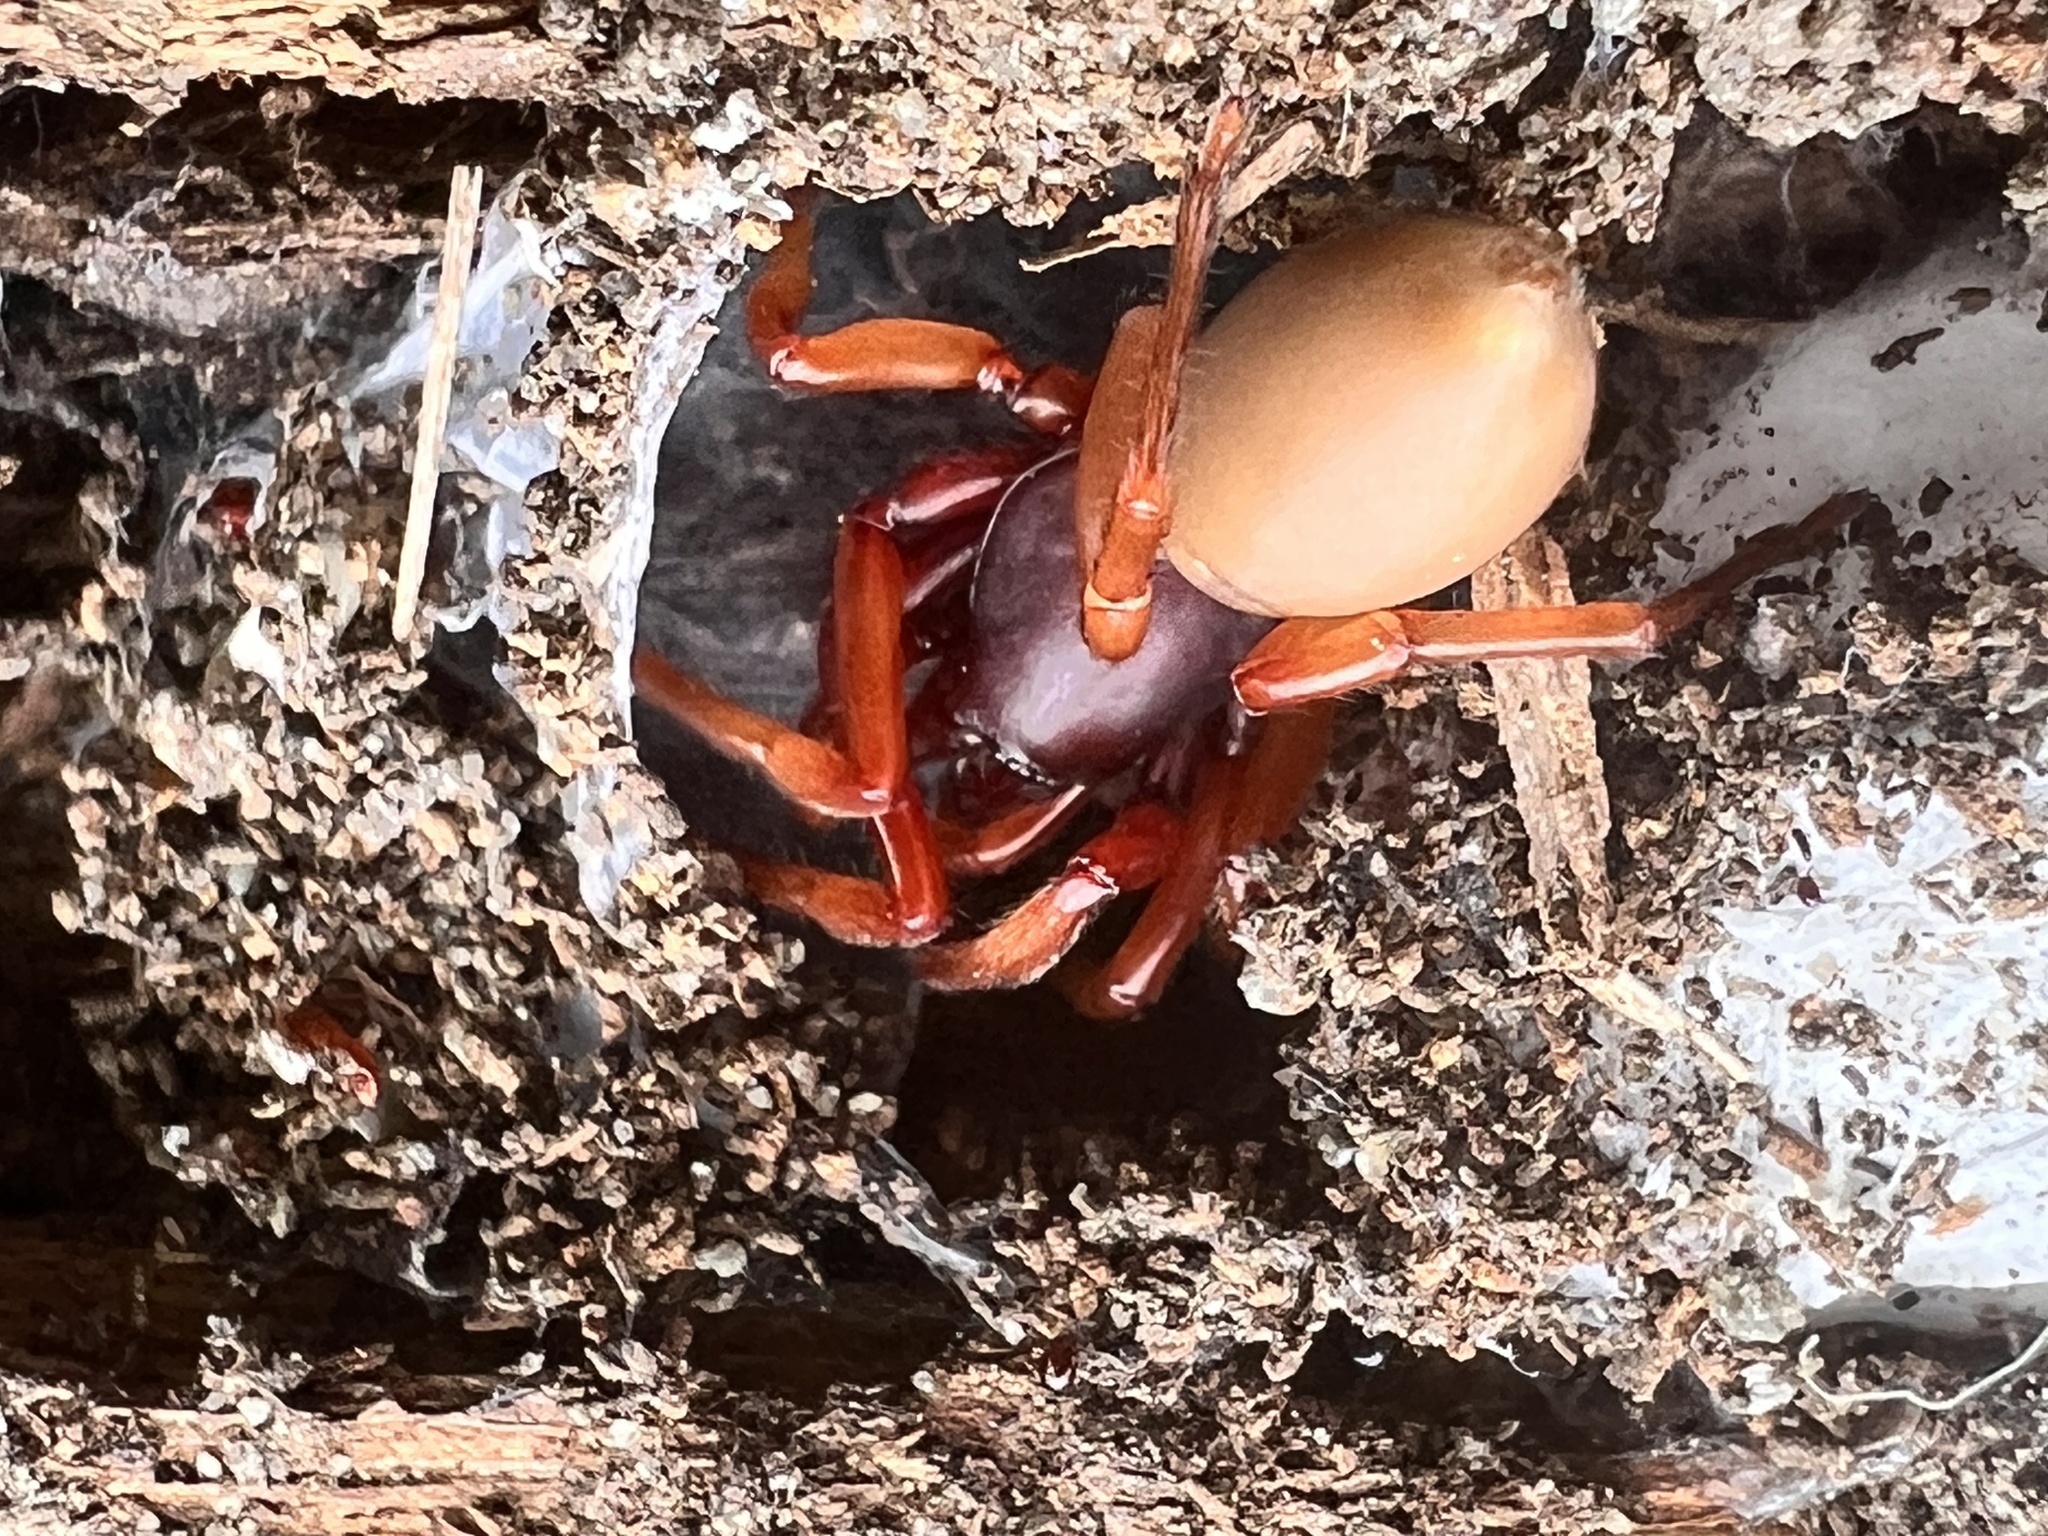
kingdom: Animalia
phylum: Arthropoda
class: Arachnida
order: Araneae
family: Dysderidae
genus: Dysdera
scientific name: Dysdera crocata
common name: Woodlouse spider
